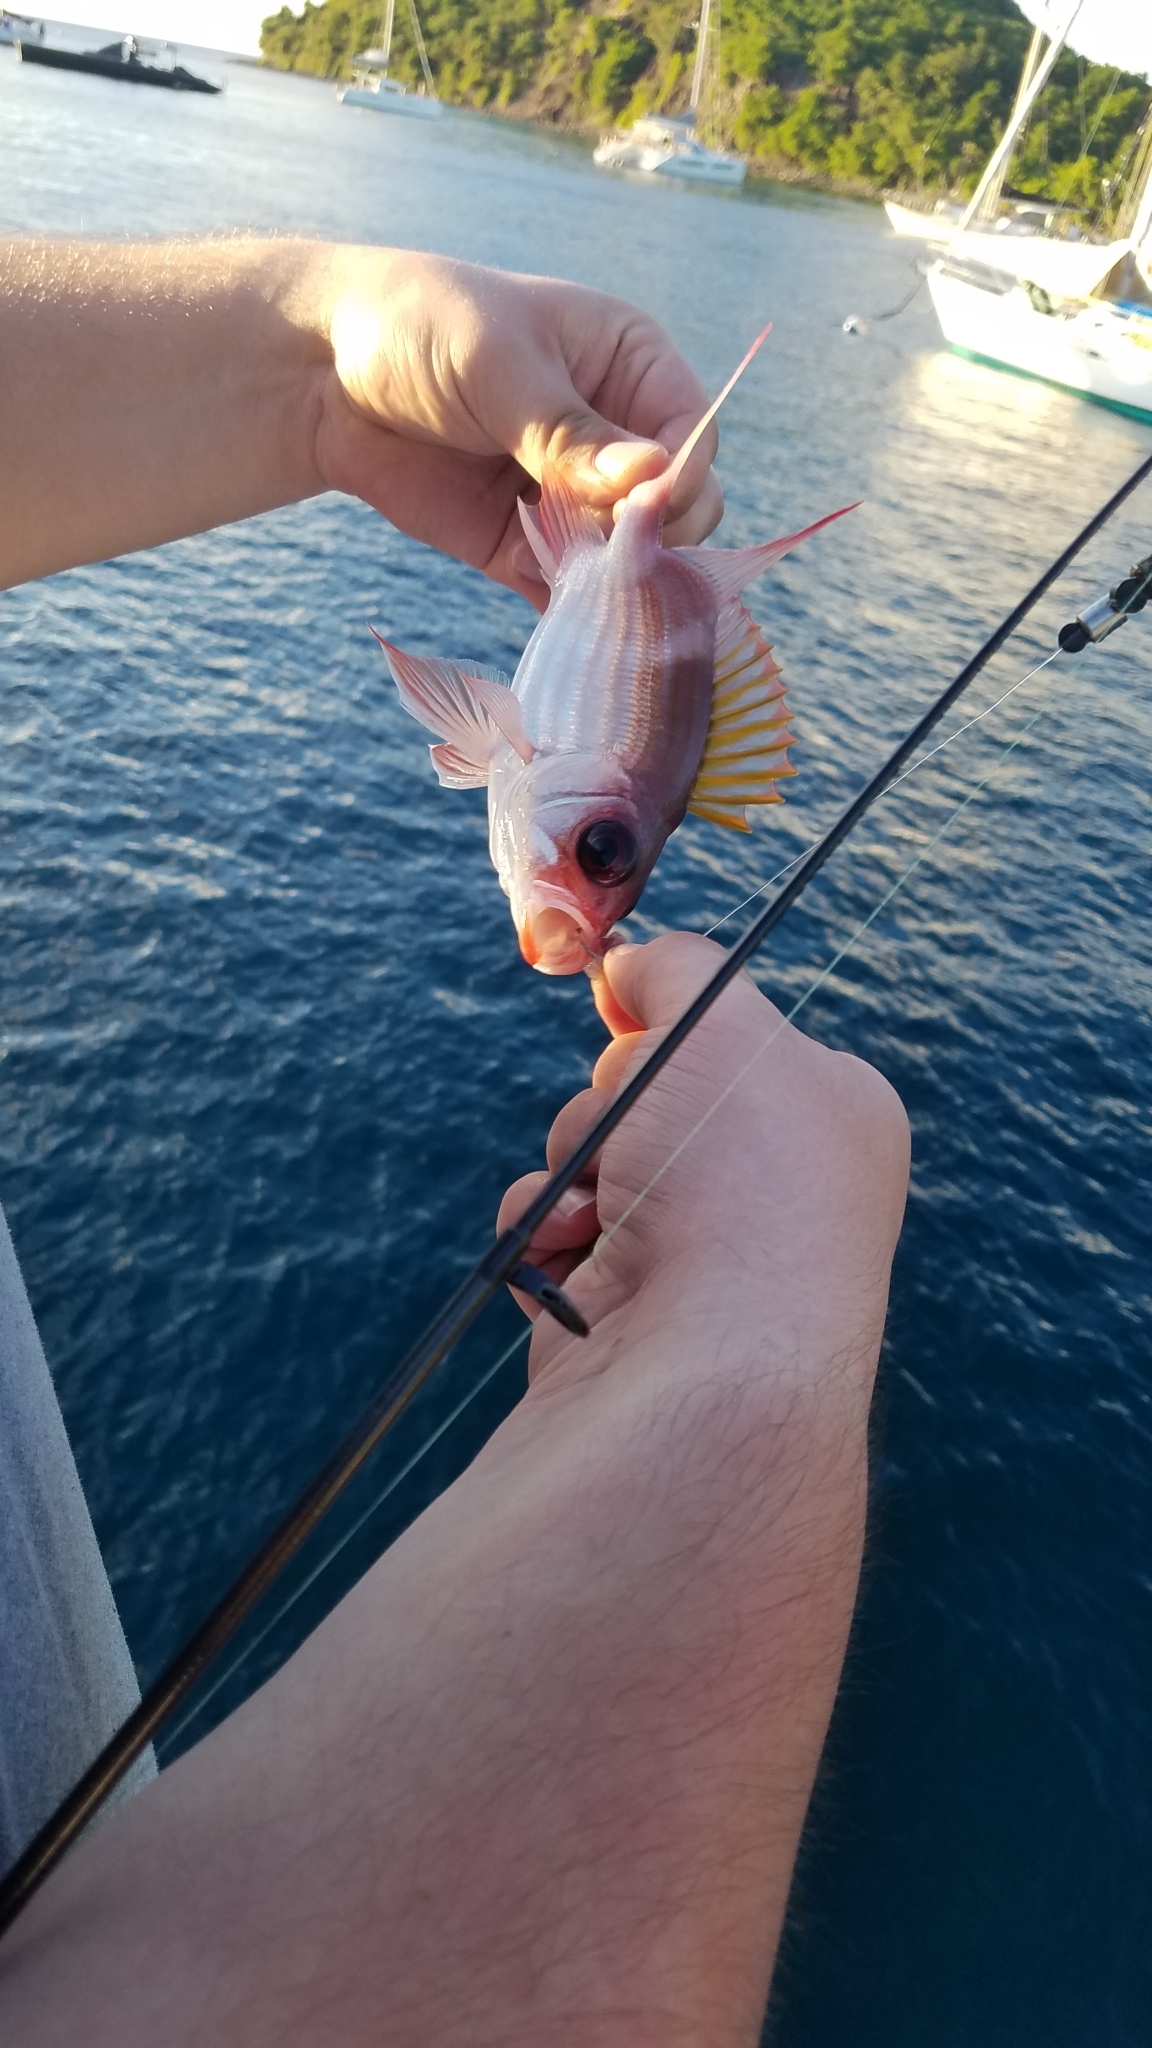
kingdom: Animalia
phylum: Chordata
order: Beryciformes
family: Holocentridae
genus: Holocentrus
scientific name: Holocentrus adscensionis
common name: Squirrelfish
